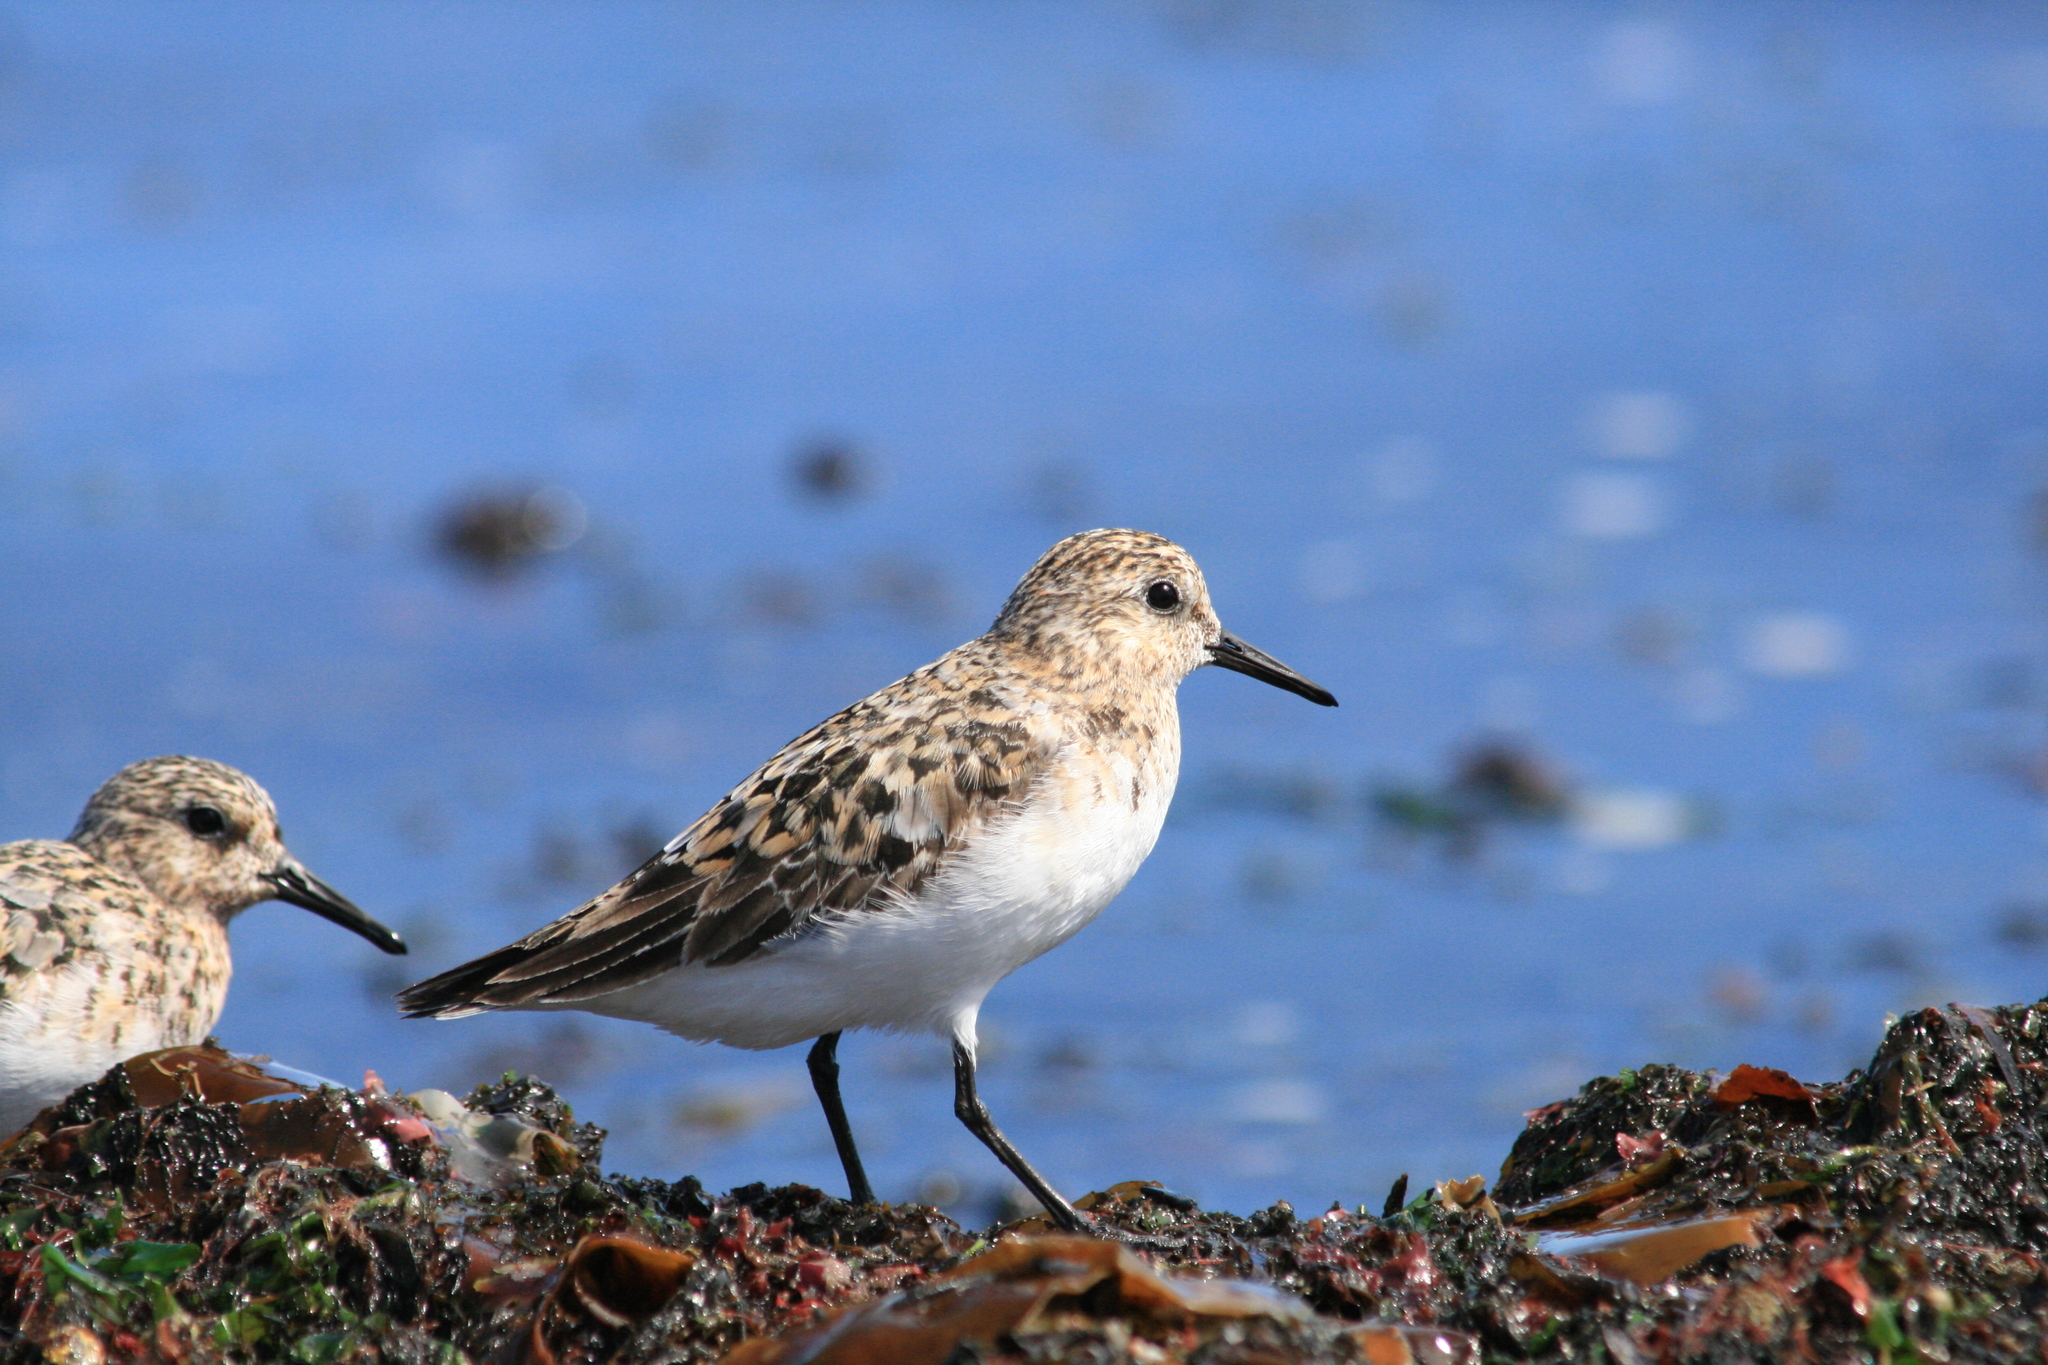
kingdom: Animalia
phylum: Chordata
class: Aves
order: Charadriiformes
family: Scolopacidae
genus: Calidris
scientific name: Calidris alba
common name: Sanderling
